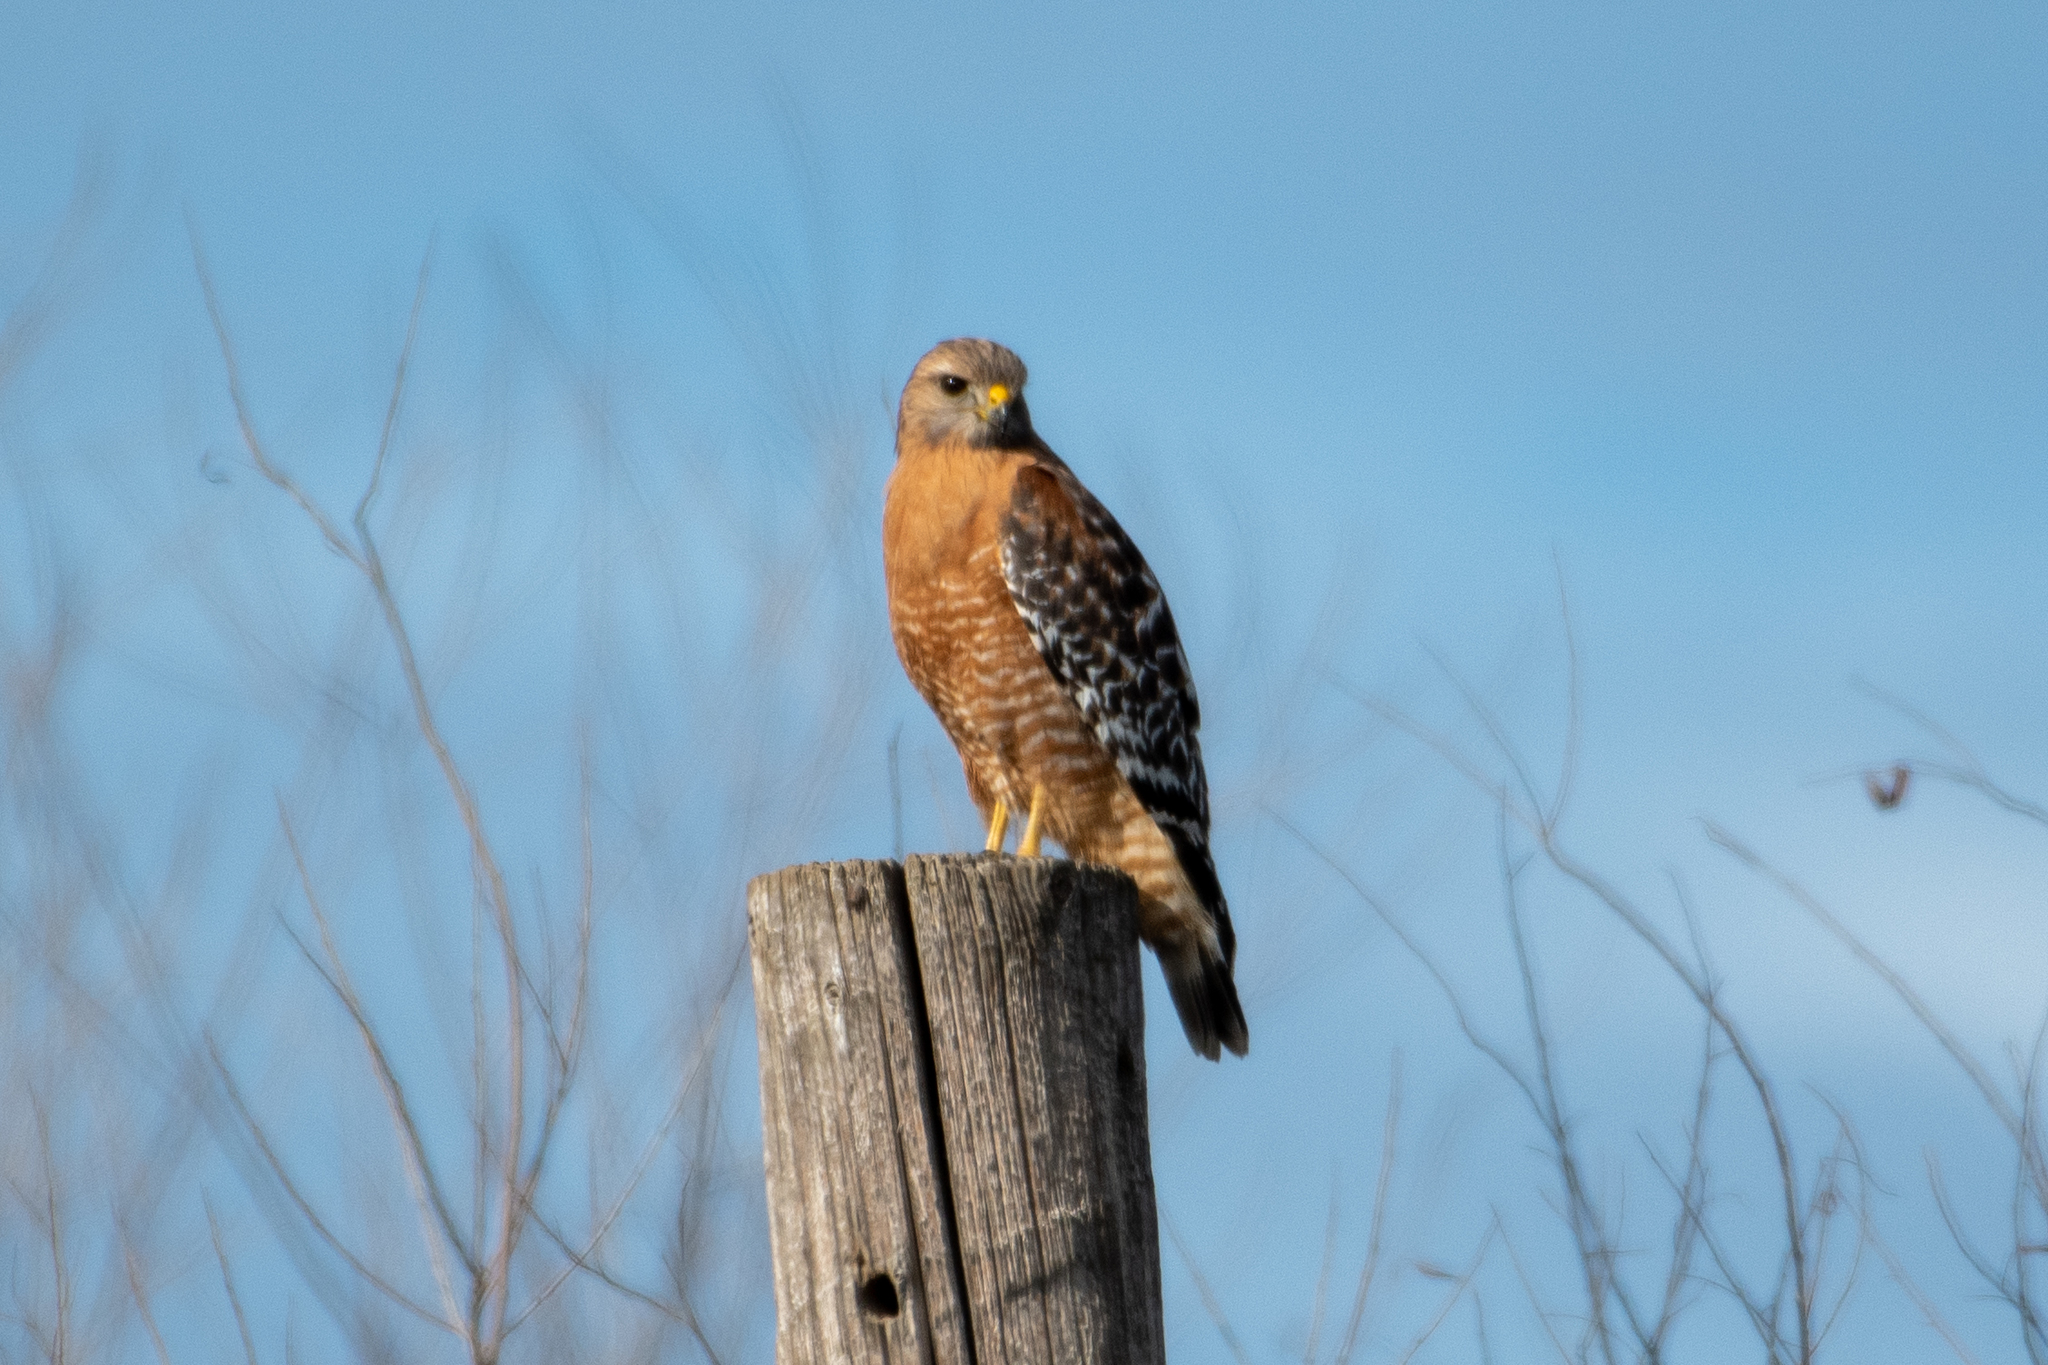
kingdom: Animalia
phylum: Chordata
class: Aves
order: Accipitriformes
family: Accipitridae
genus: Buteo
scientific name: Buteo lineatus
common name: Red-shouldered hawk
